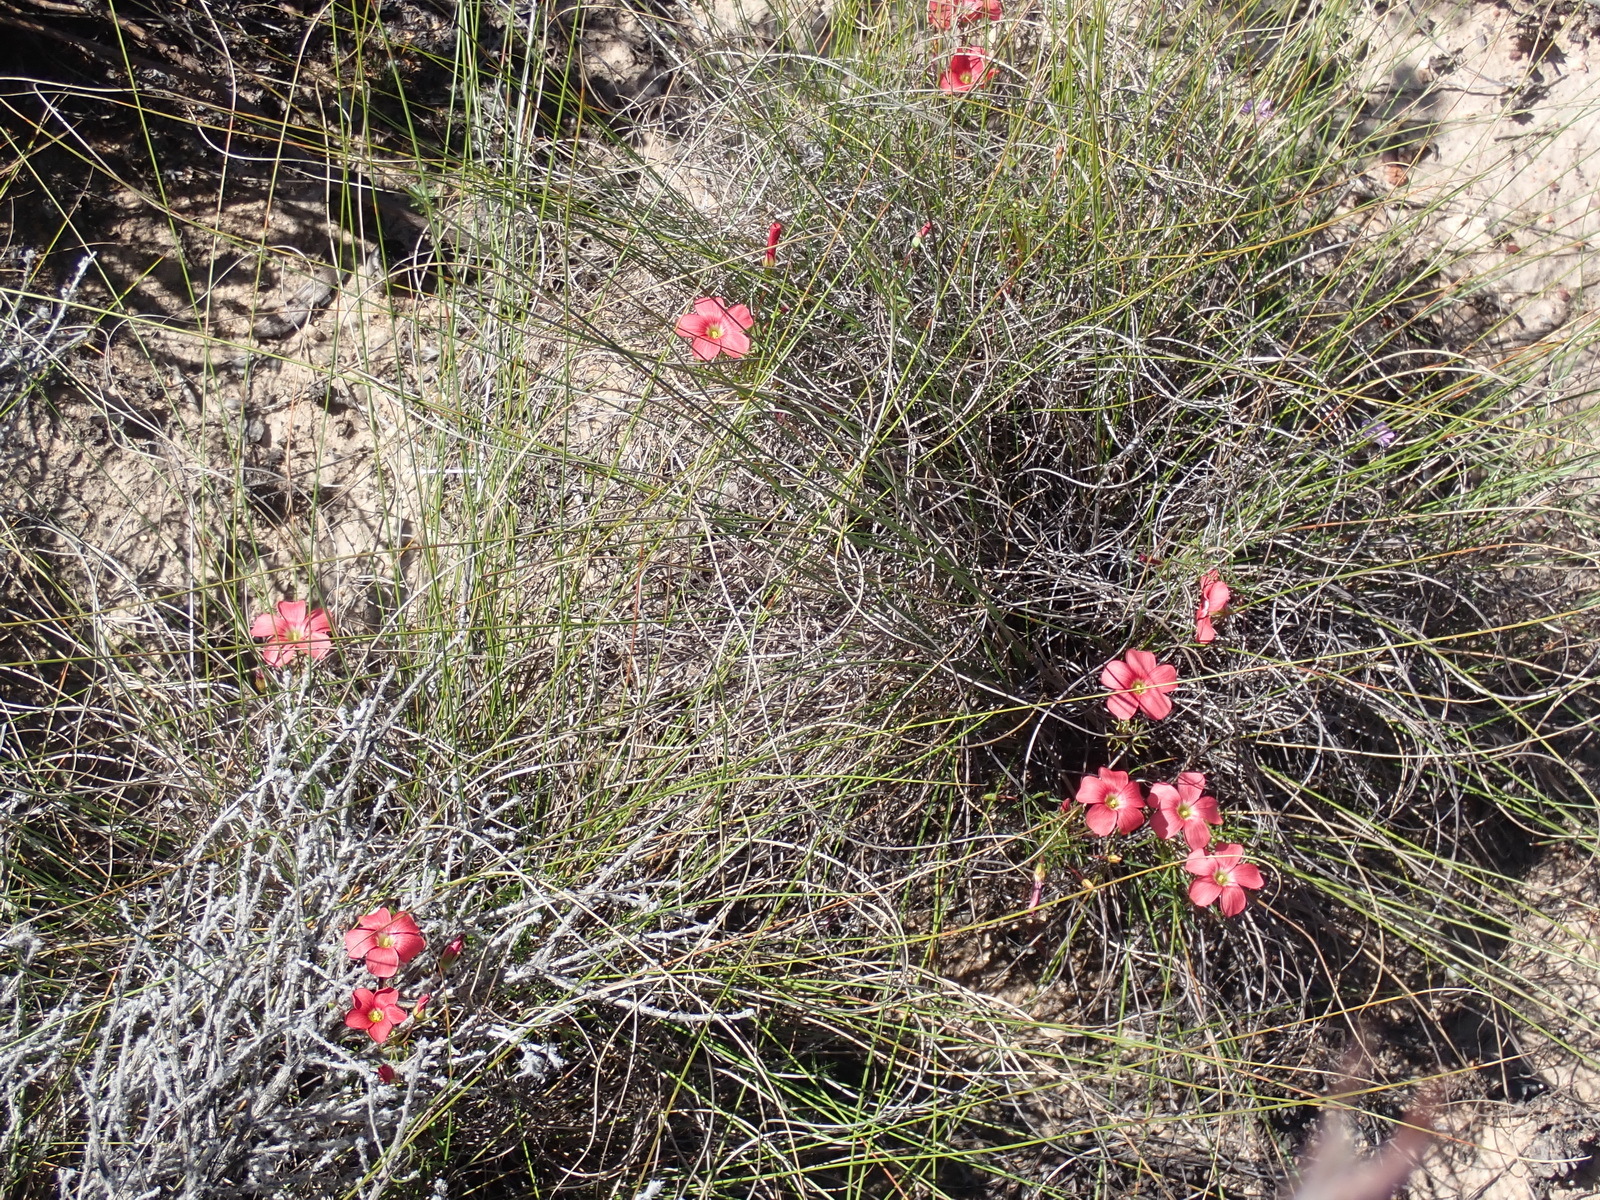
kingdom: Plantae
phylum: Tracheophyta
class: Magnoliopsida
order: Oxalidales
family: Oxalidaceae
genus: Oxalis
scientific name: Oxalis pendulifolia
